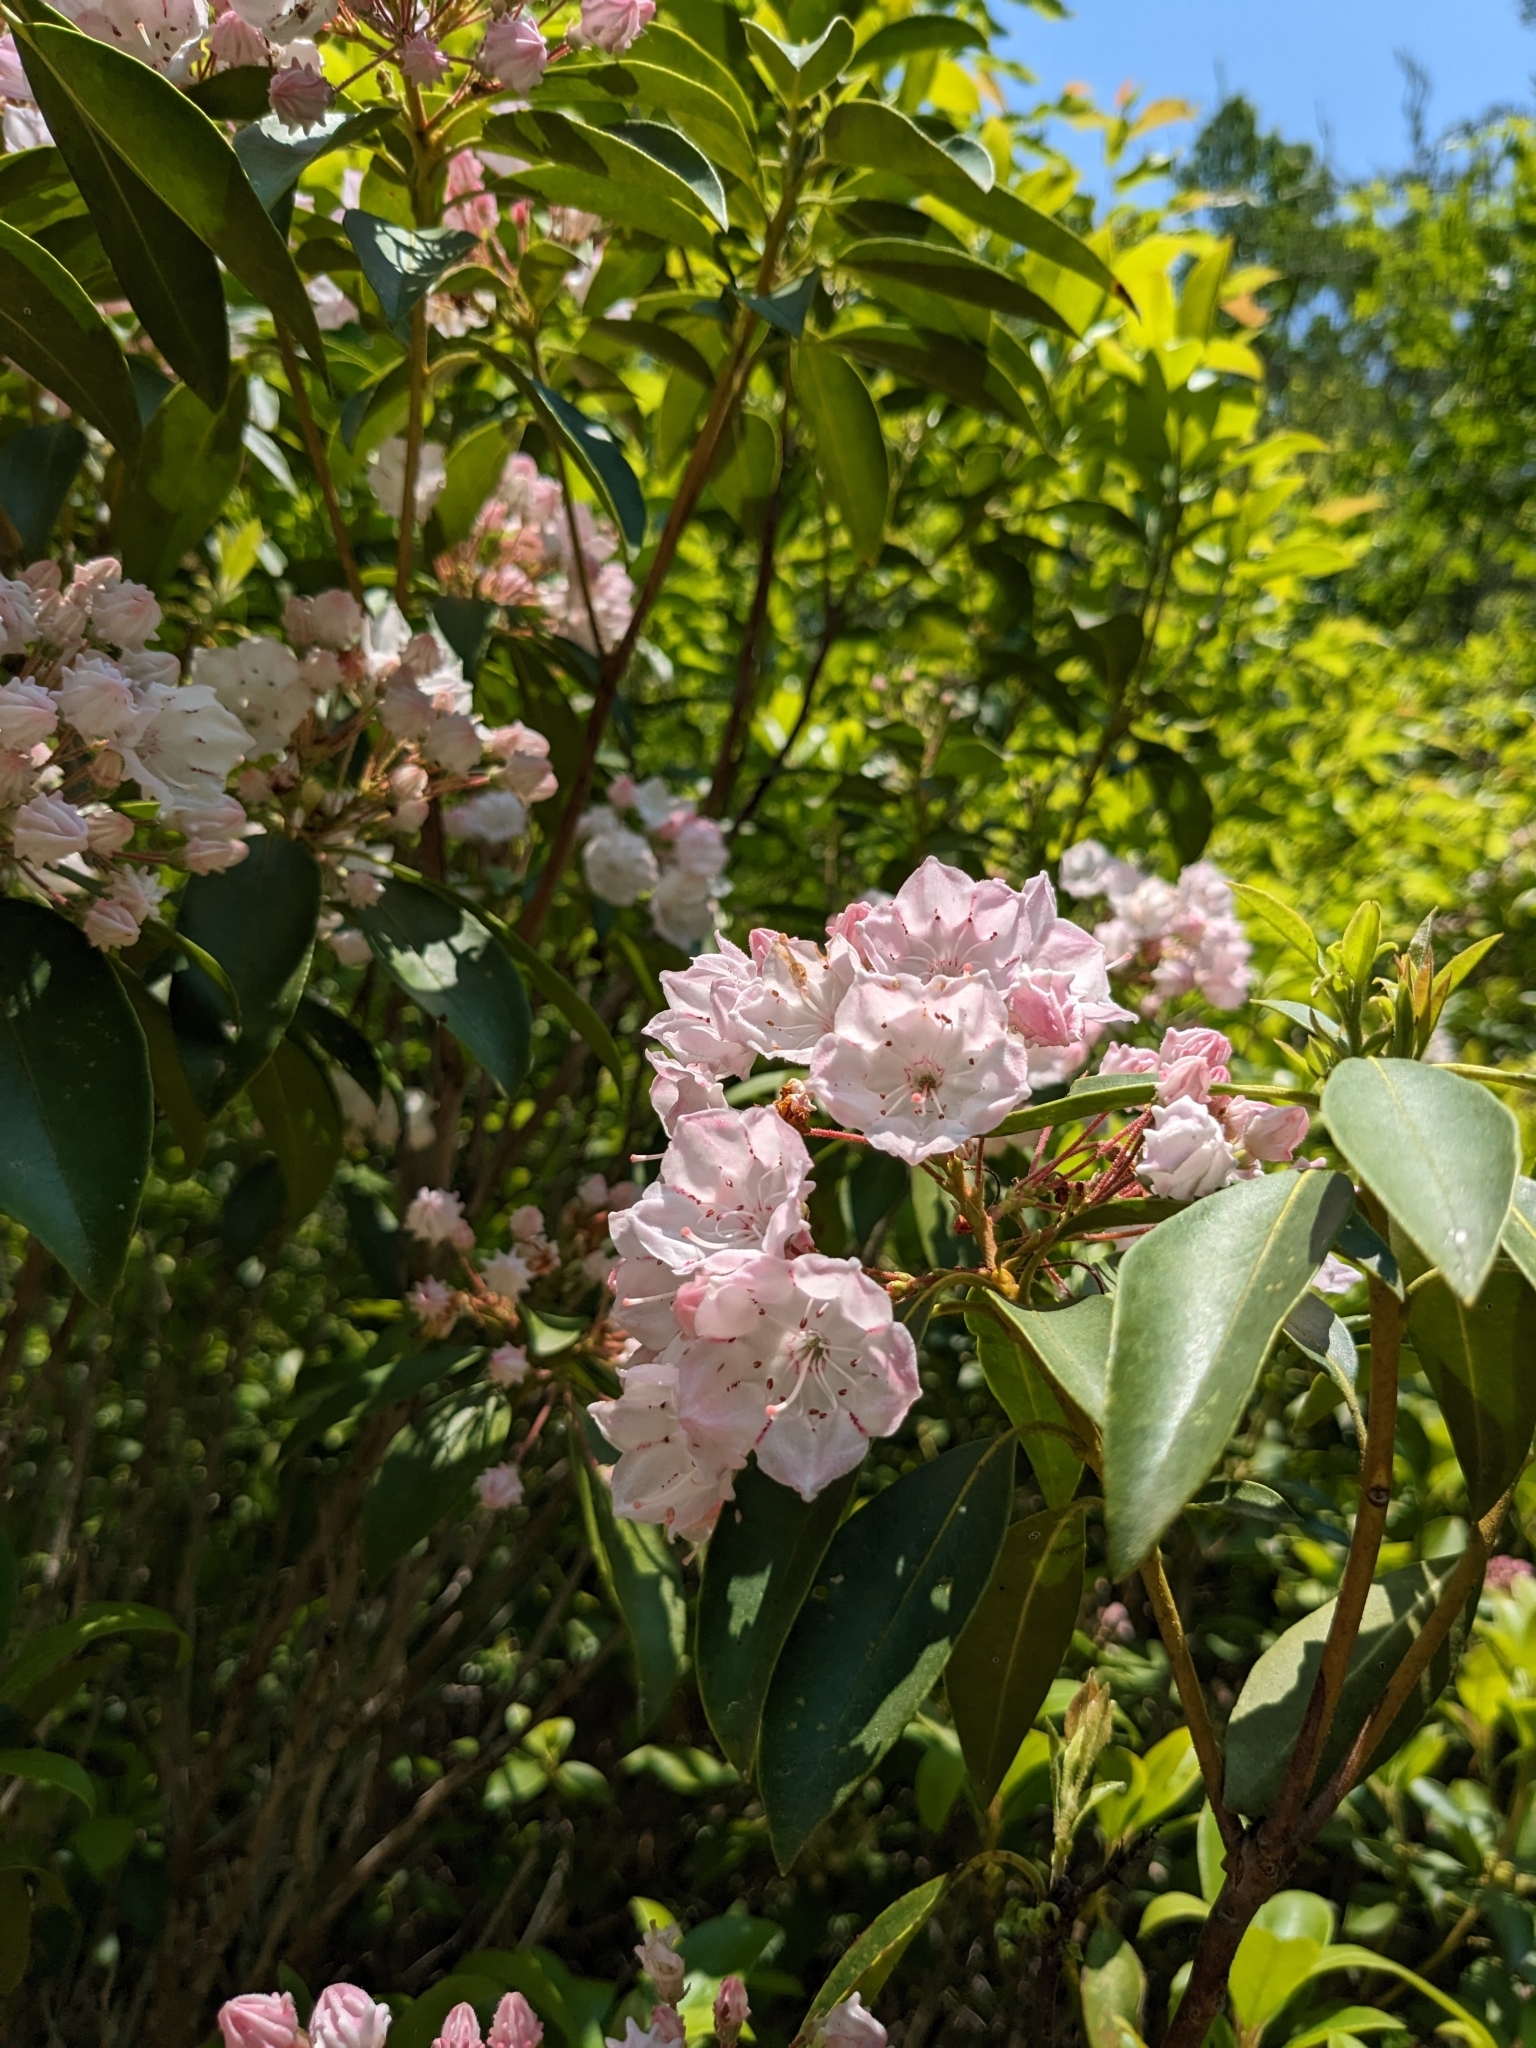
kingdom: Plantae
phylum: Tracheophyta
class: Magnoliopsida
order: Ericales
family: Ericaceae
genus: Kalmia
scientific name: Kalmia latifolia
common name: Mountain-laurel
